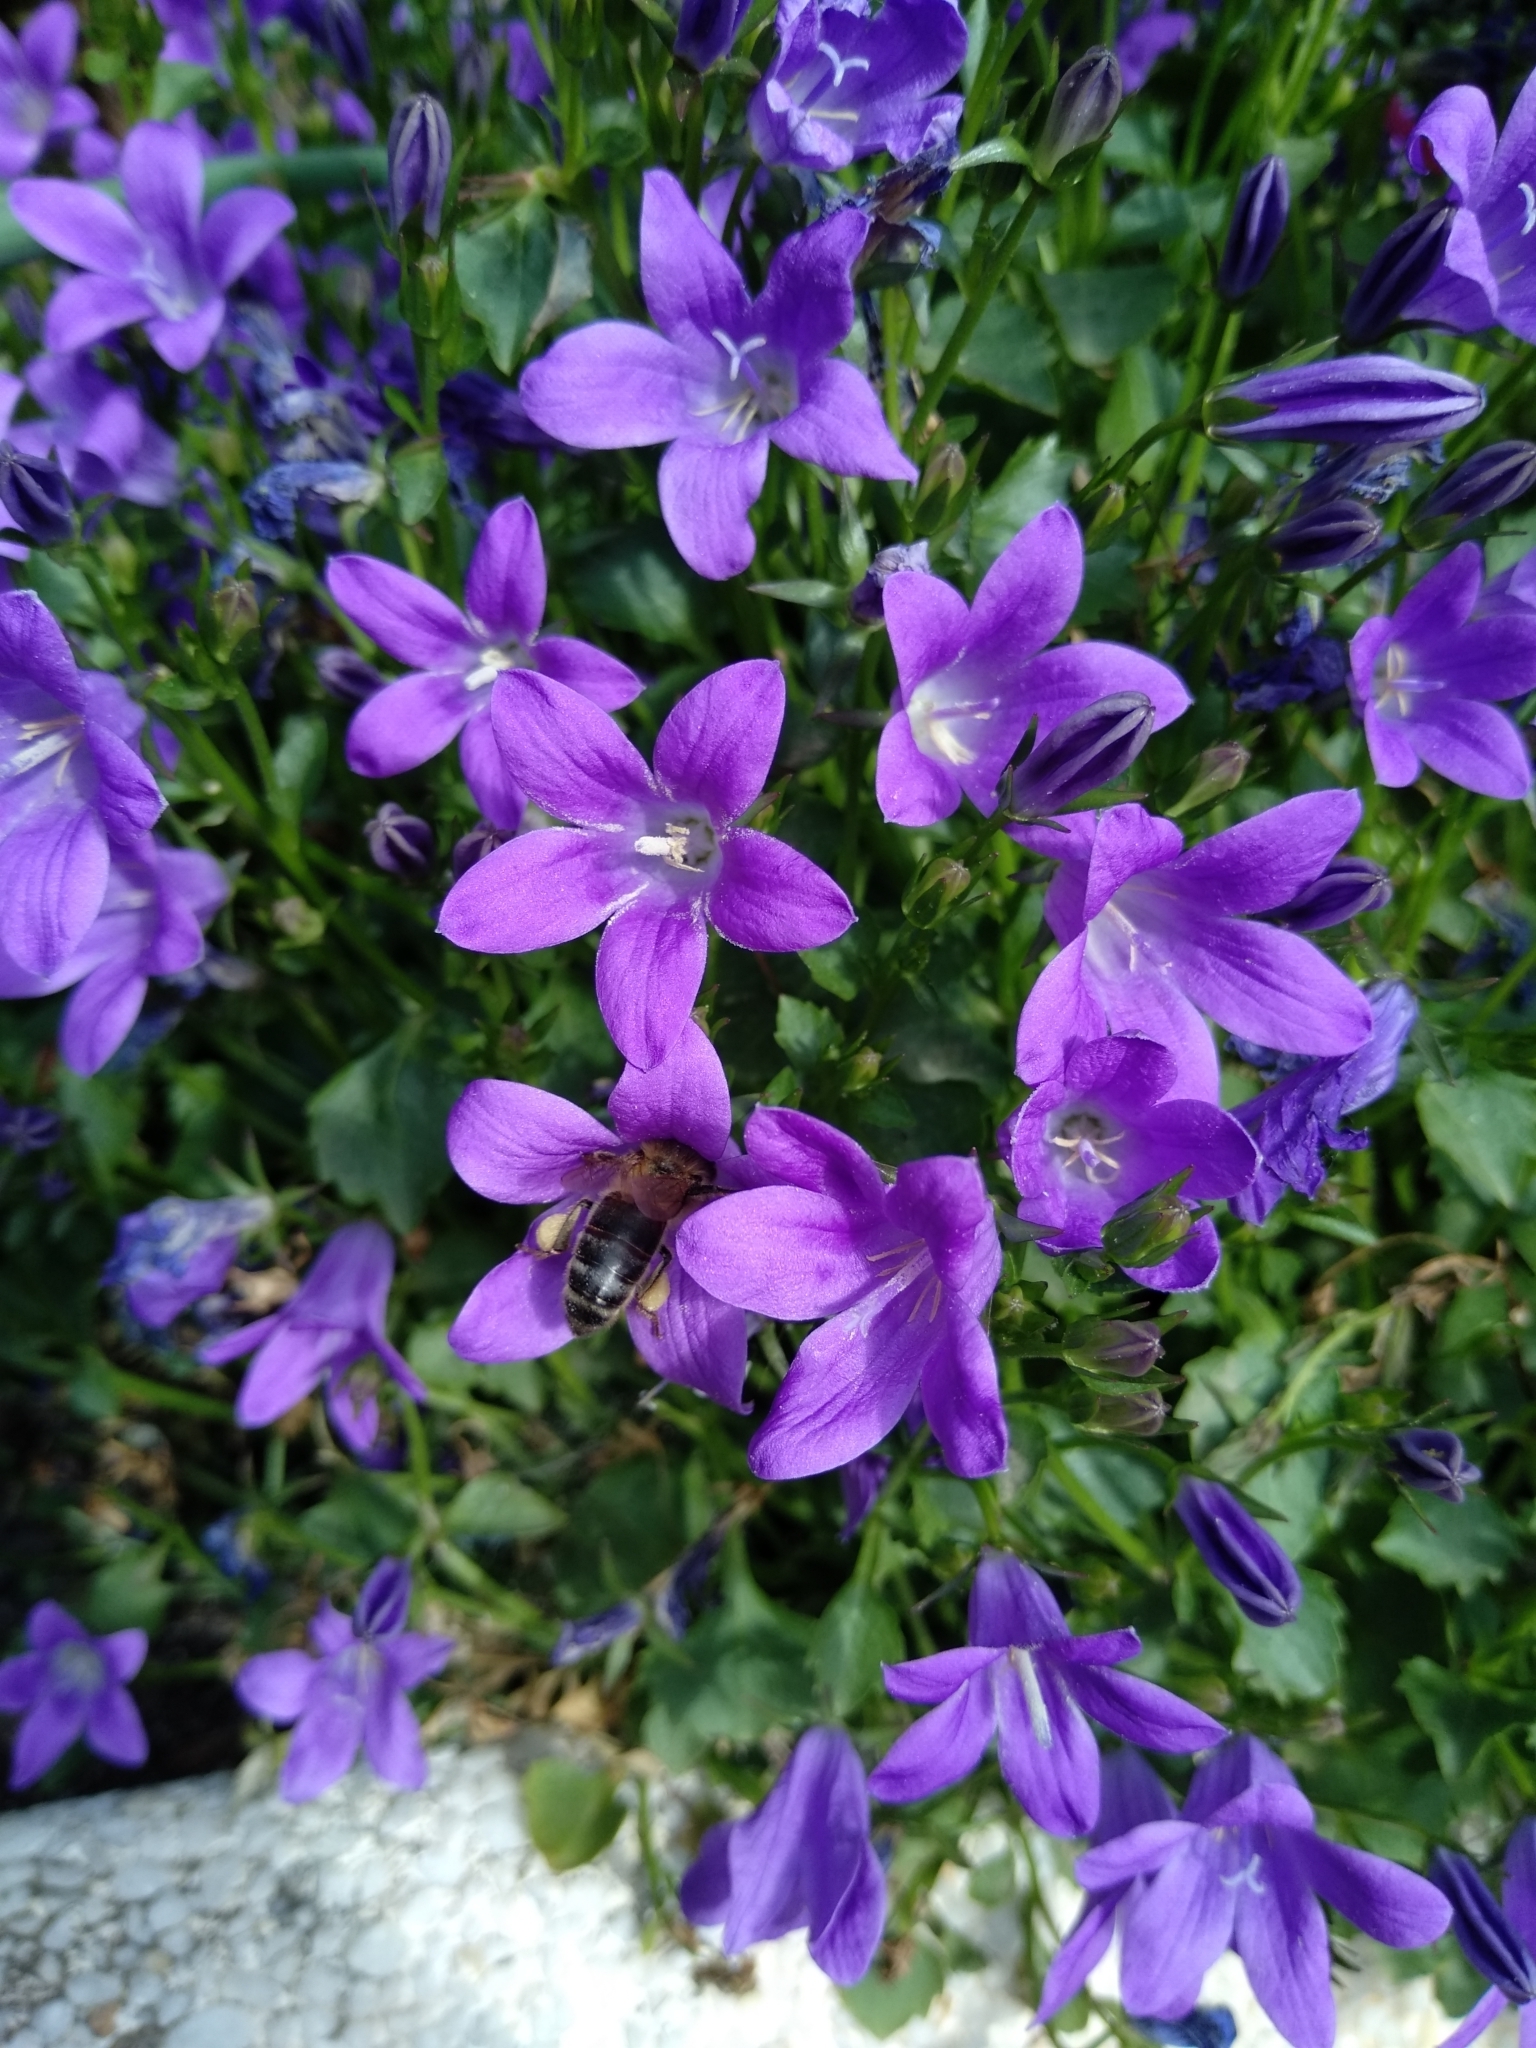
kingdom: Animalia
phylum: Arthropoda
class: Insecta
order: Hymenoptera
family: Apidae
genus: Apis
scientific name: Apis mellifera
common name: Honey bee
